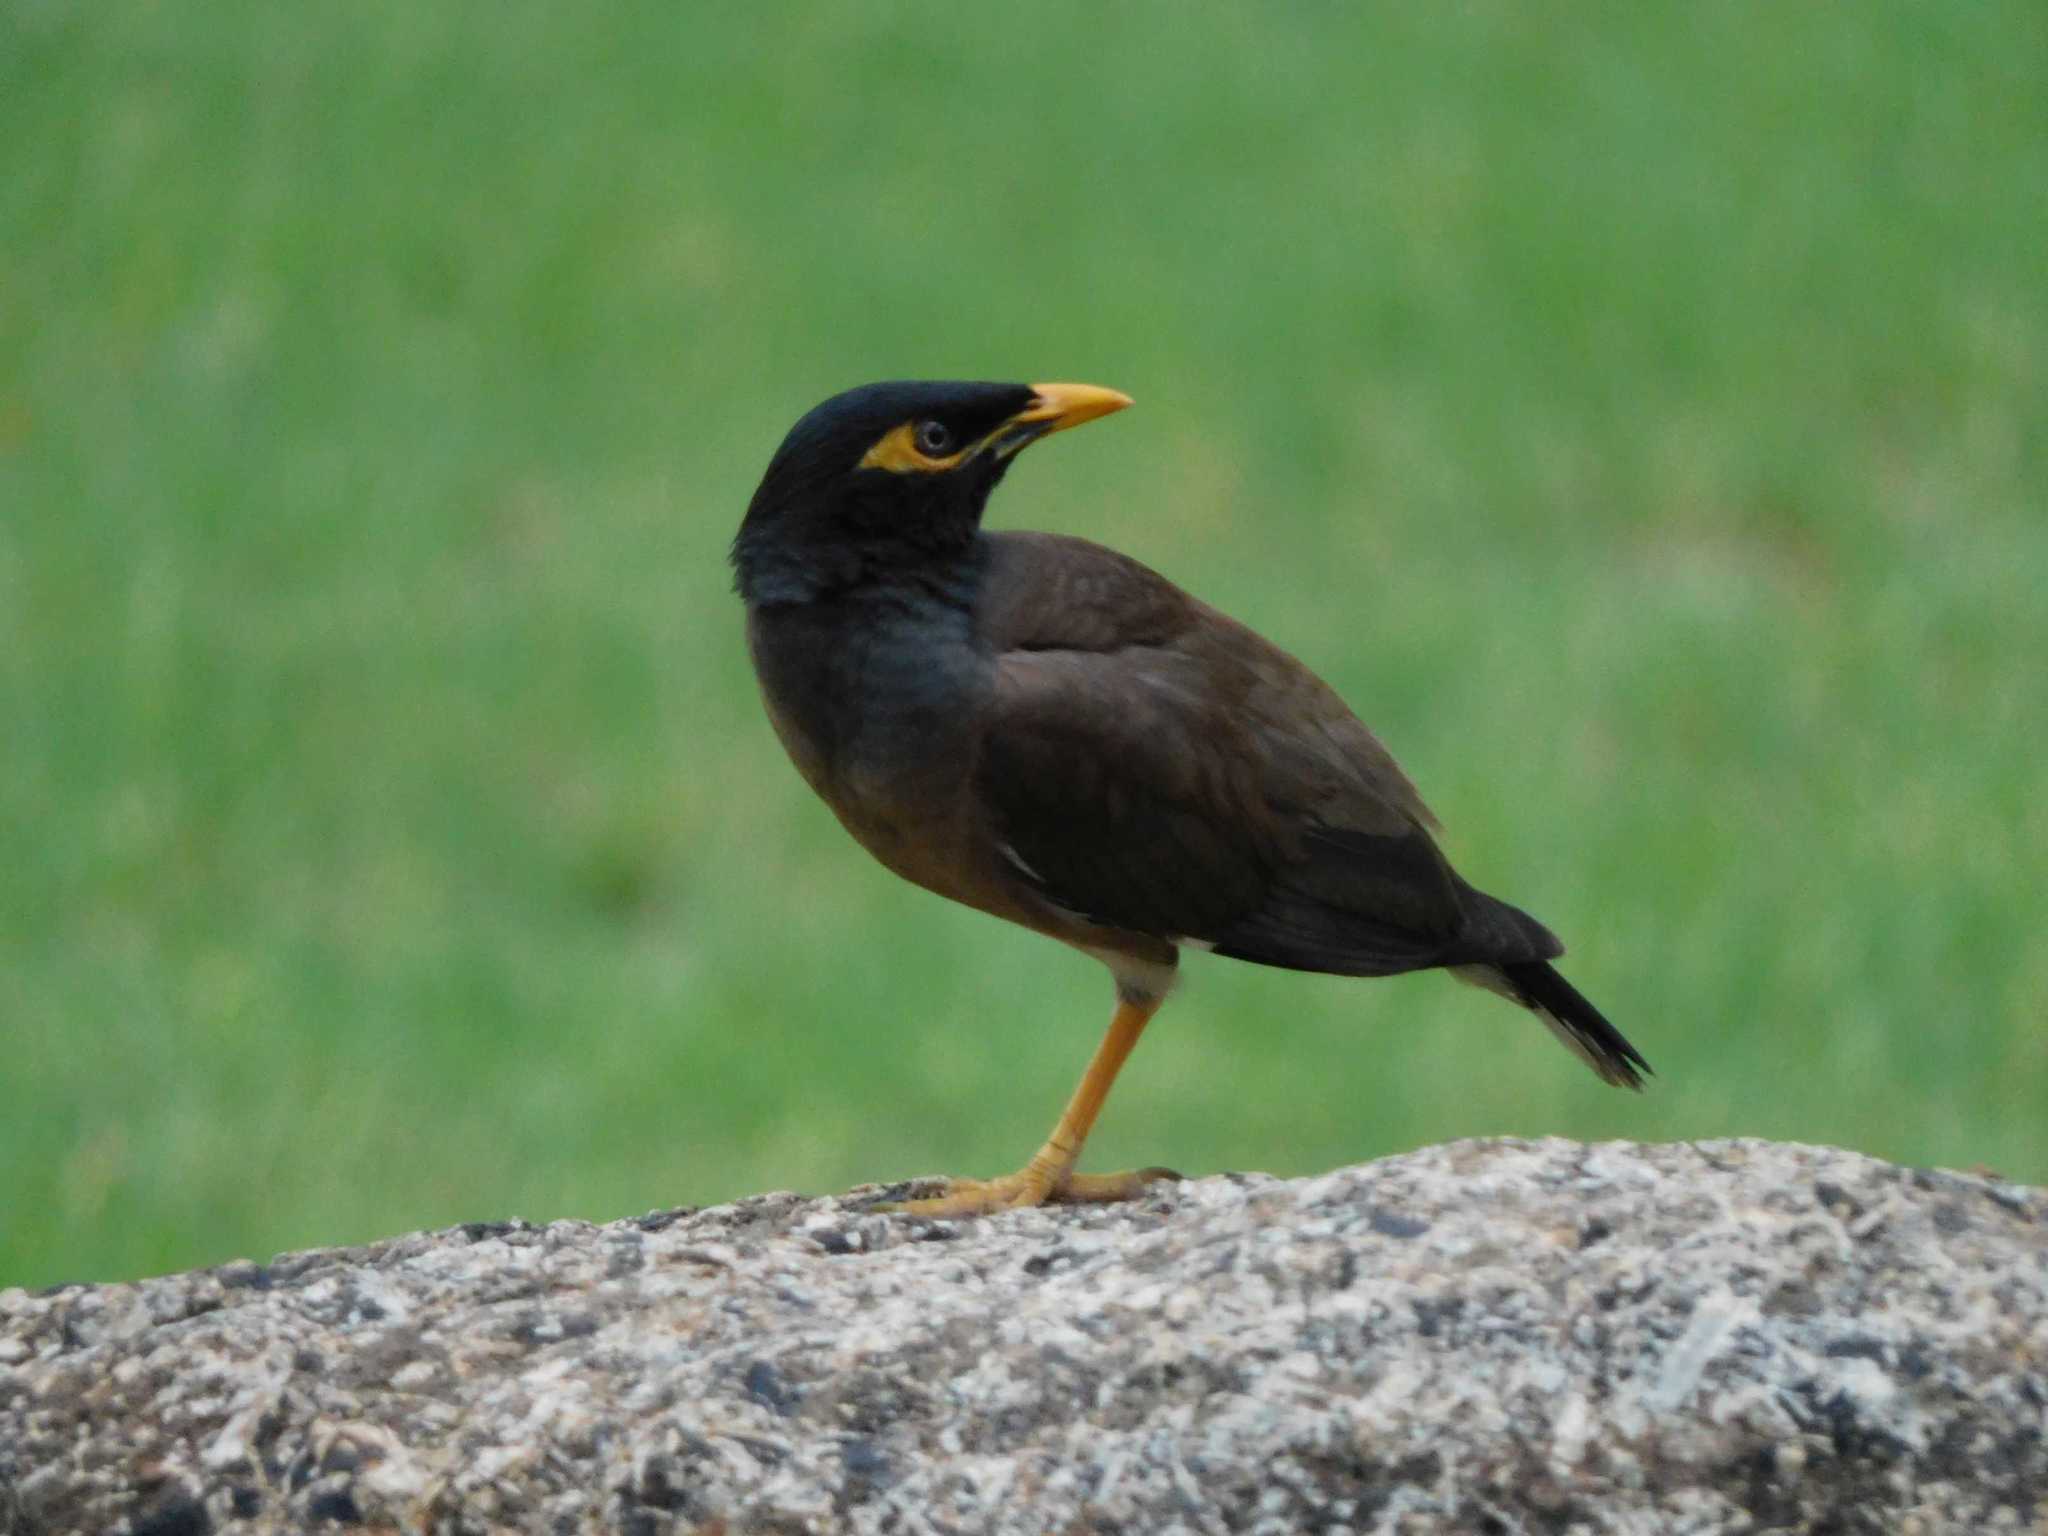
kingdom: Animalia
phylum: Chordata
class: Aves
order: Passeriformes
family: Sturnidae
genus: Acridotheres
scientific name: Acridotheres tristis
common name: Common myna
